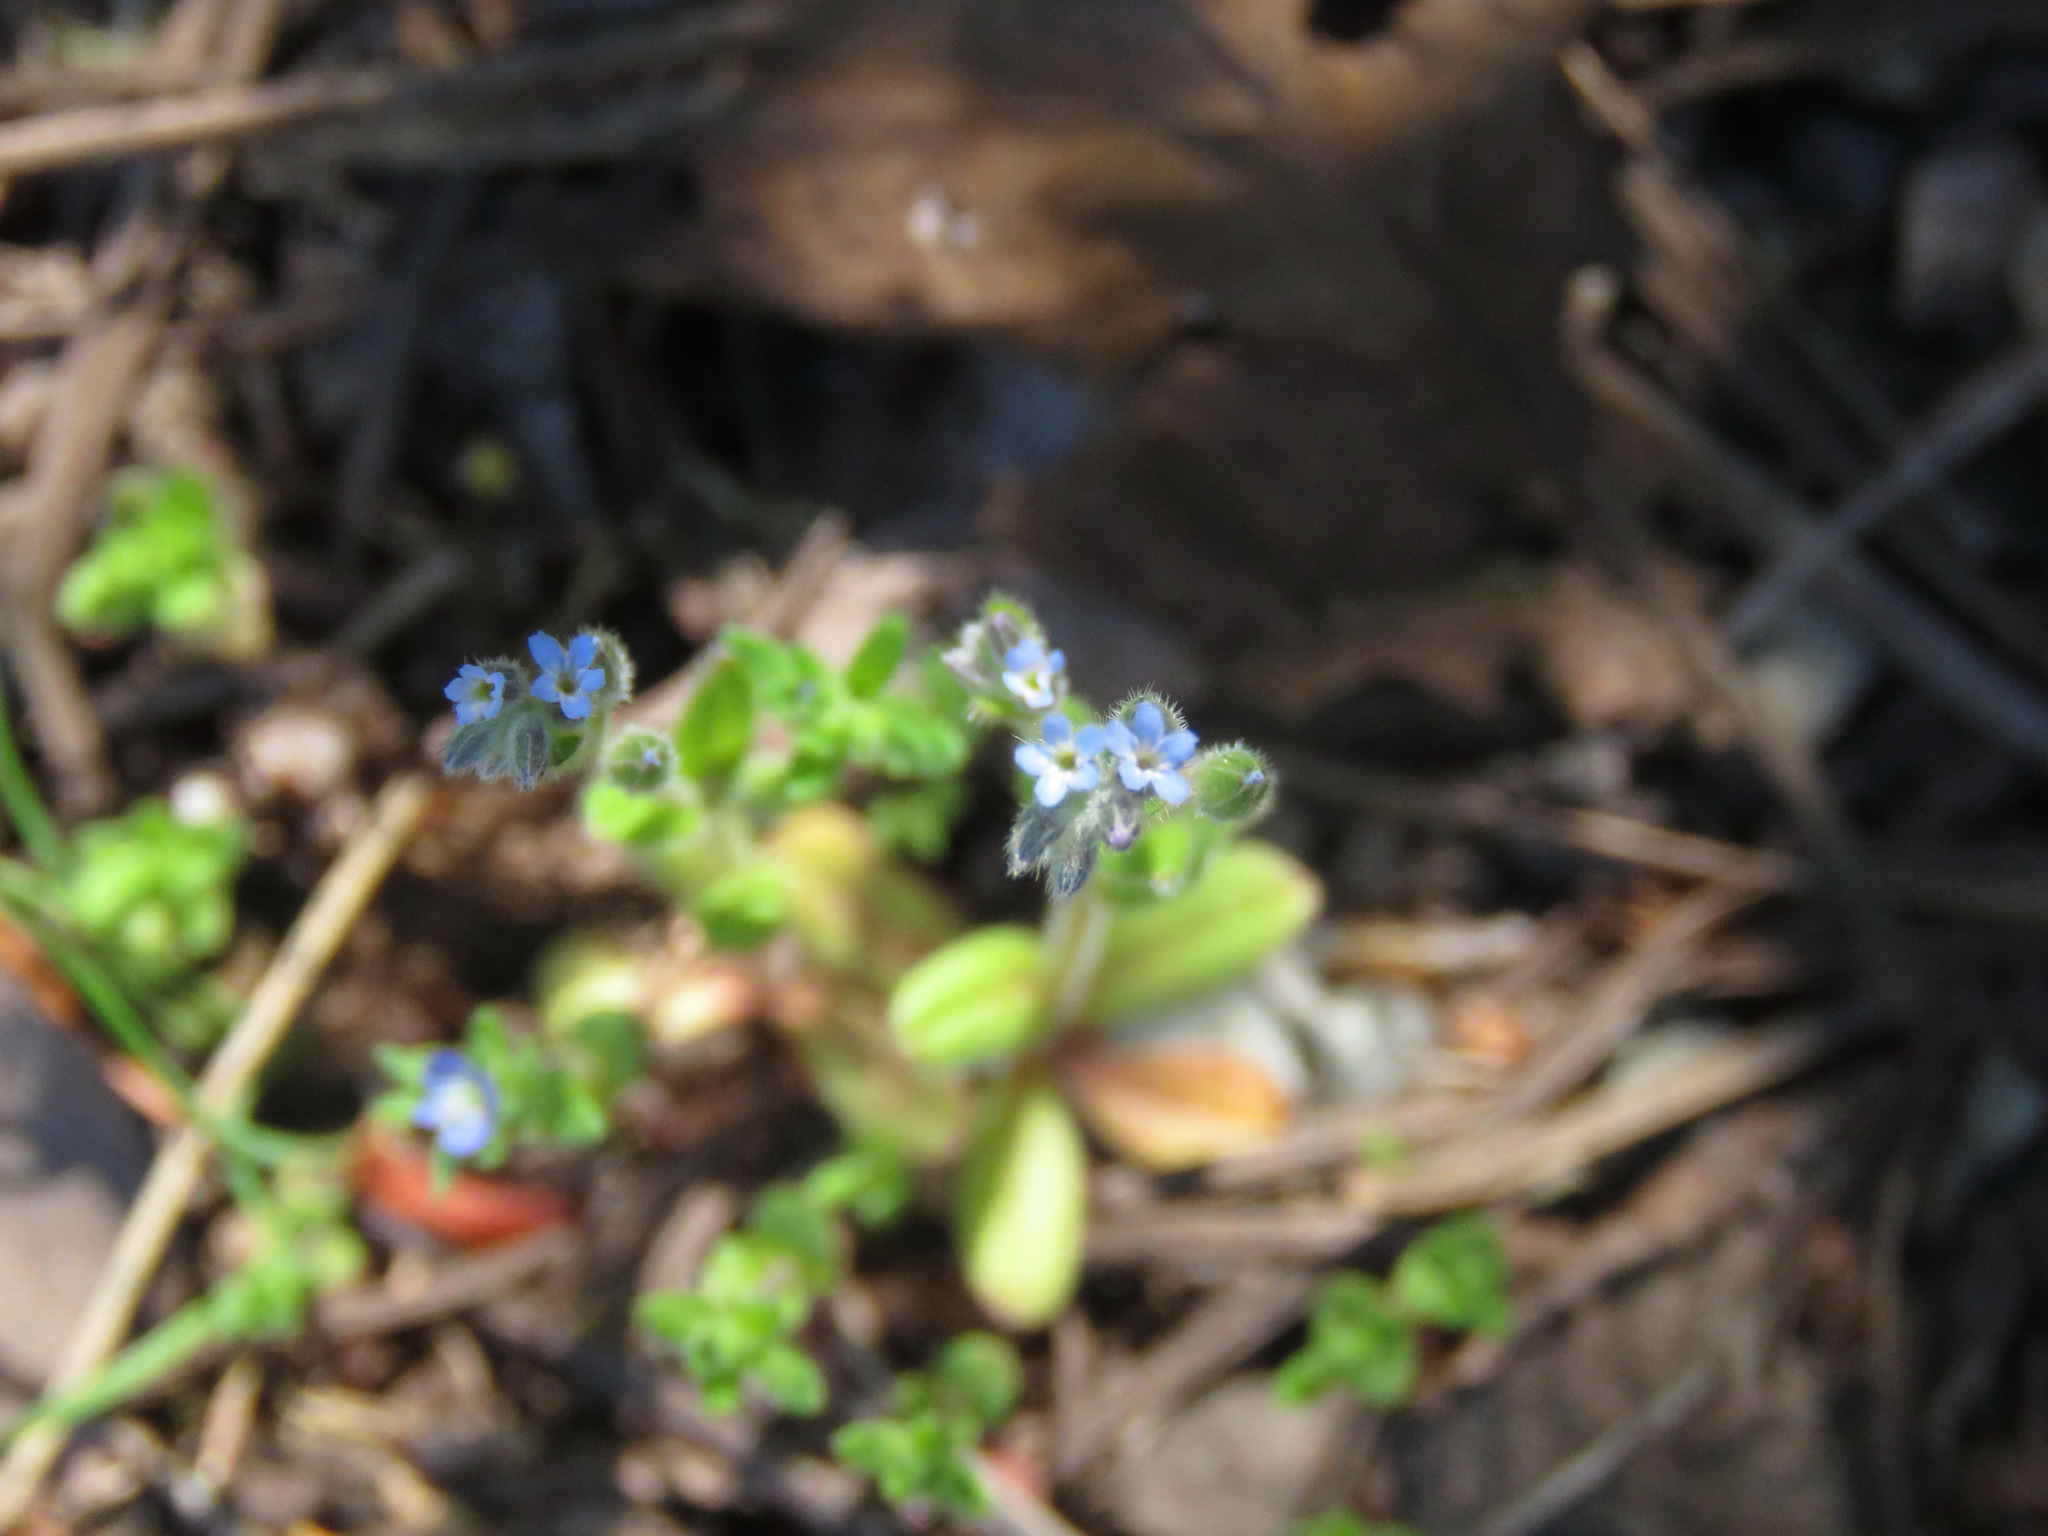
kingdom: Plantae
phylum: Tracheophyta
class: Magnoliopsida
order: Boraginales
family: Boraginaceae
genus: Myosotis
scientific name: Myosotis stricta
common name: Strict forget-me-not
